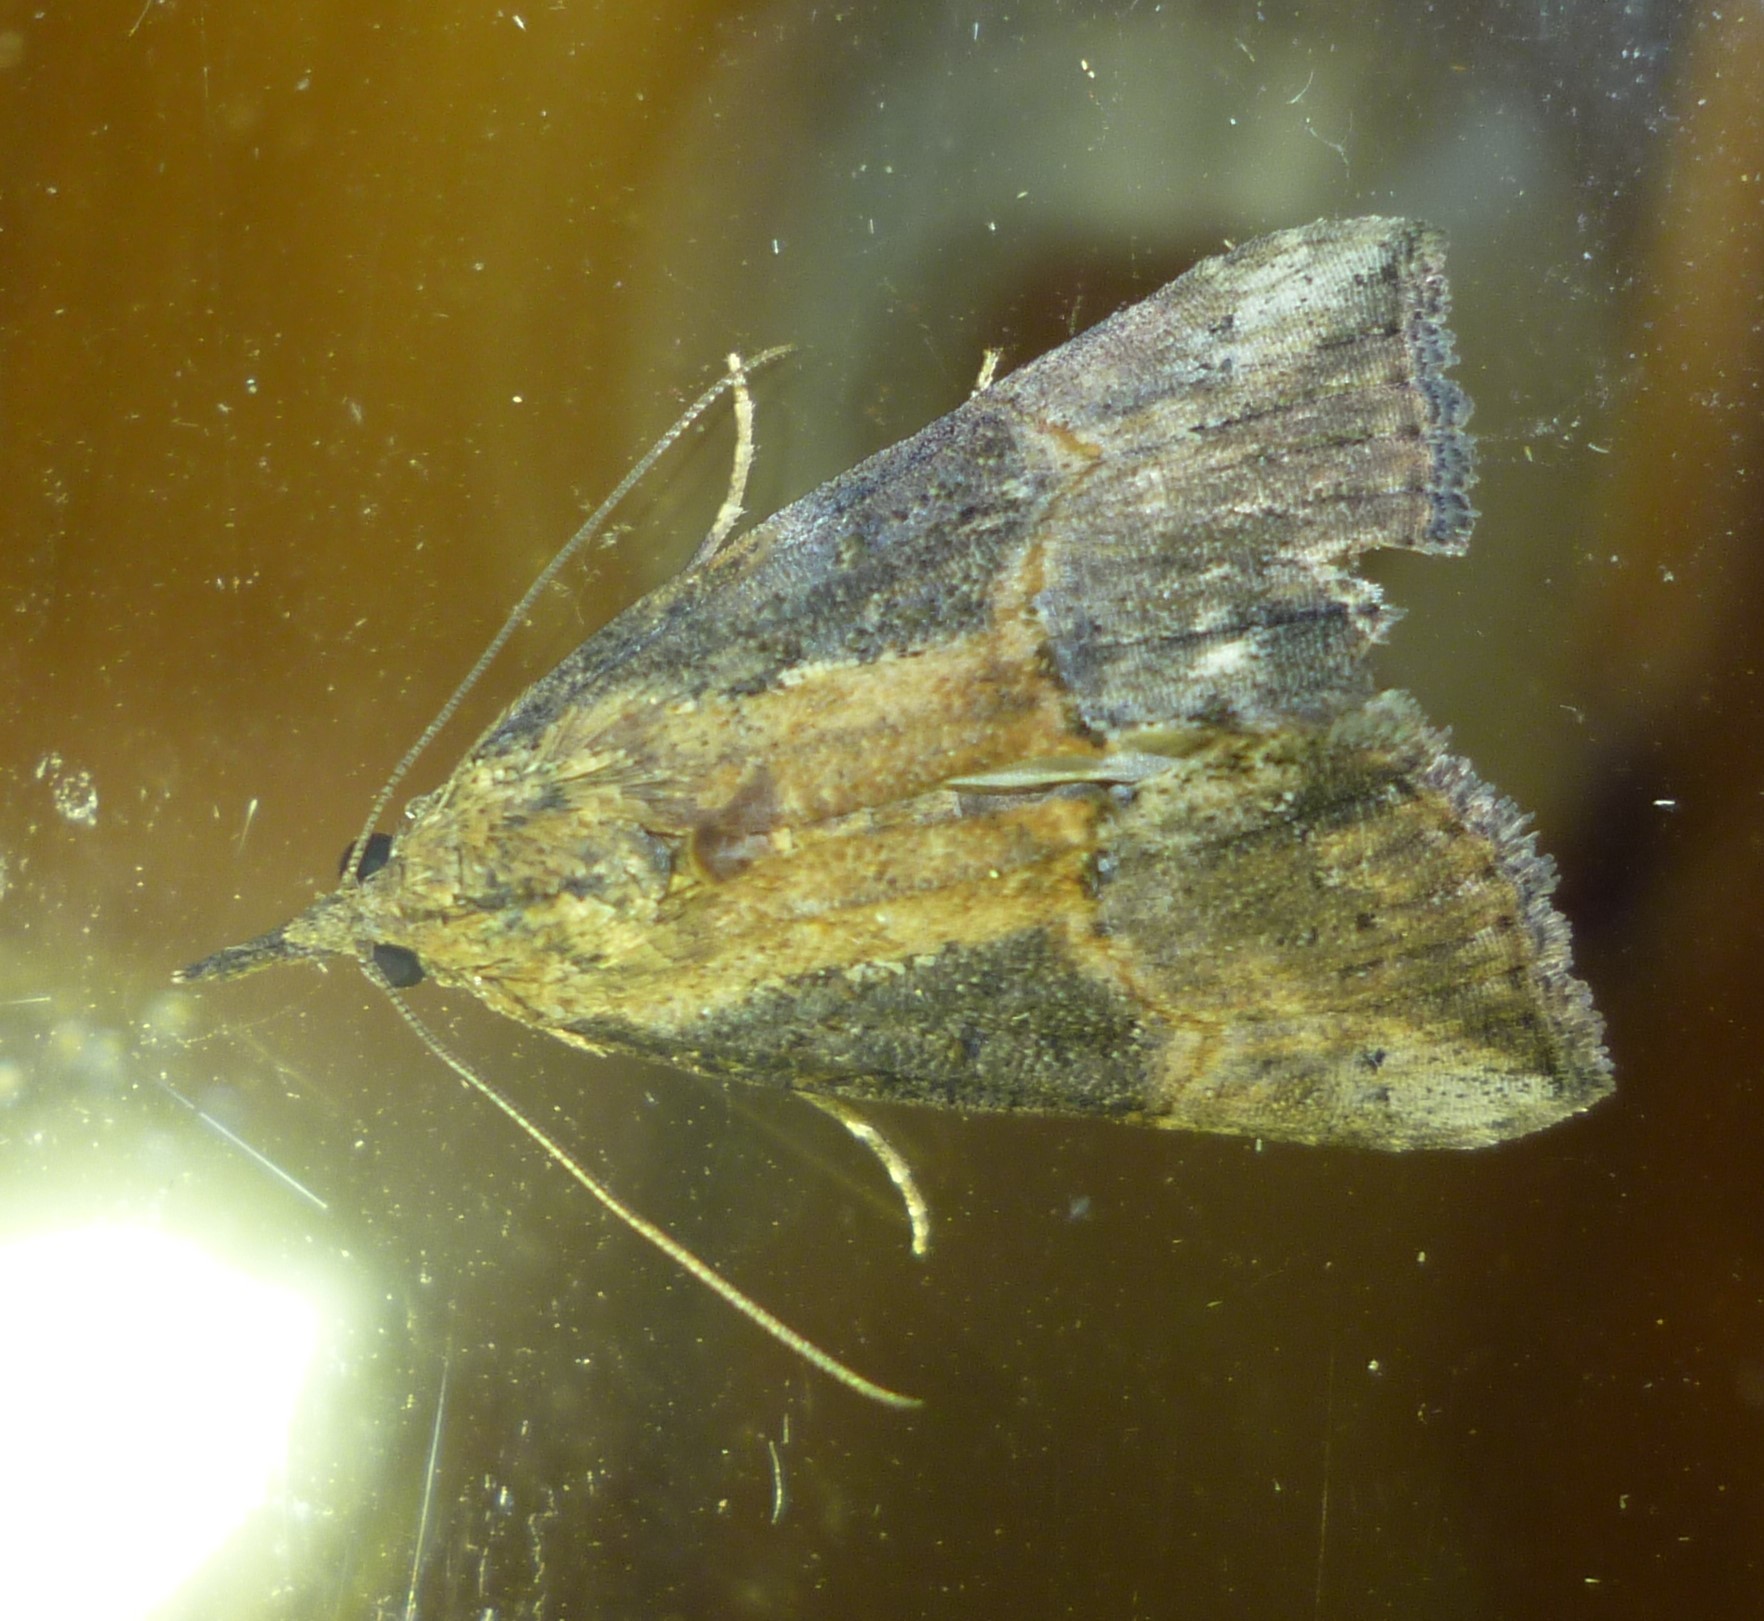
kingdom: Animalia
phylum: Arthropoda
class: Insecta
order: Lepidoptera
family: Erebidae
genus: Hypena
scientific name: Hypena scabra
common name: Green cloverworm
